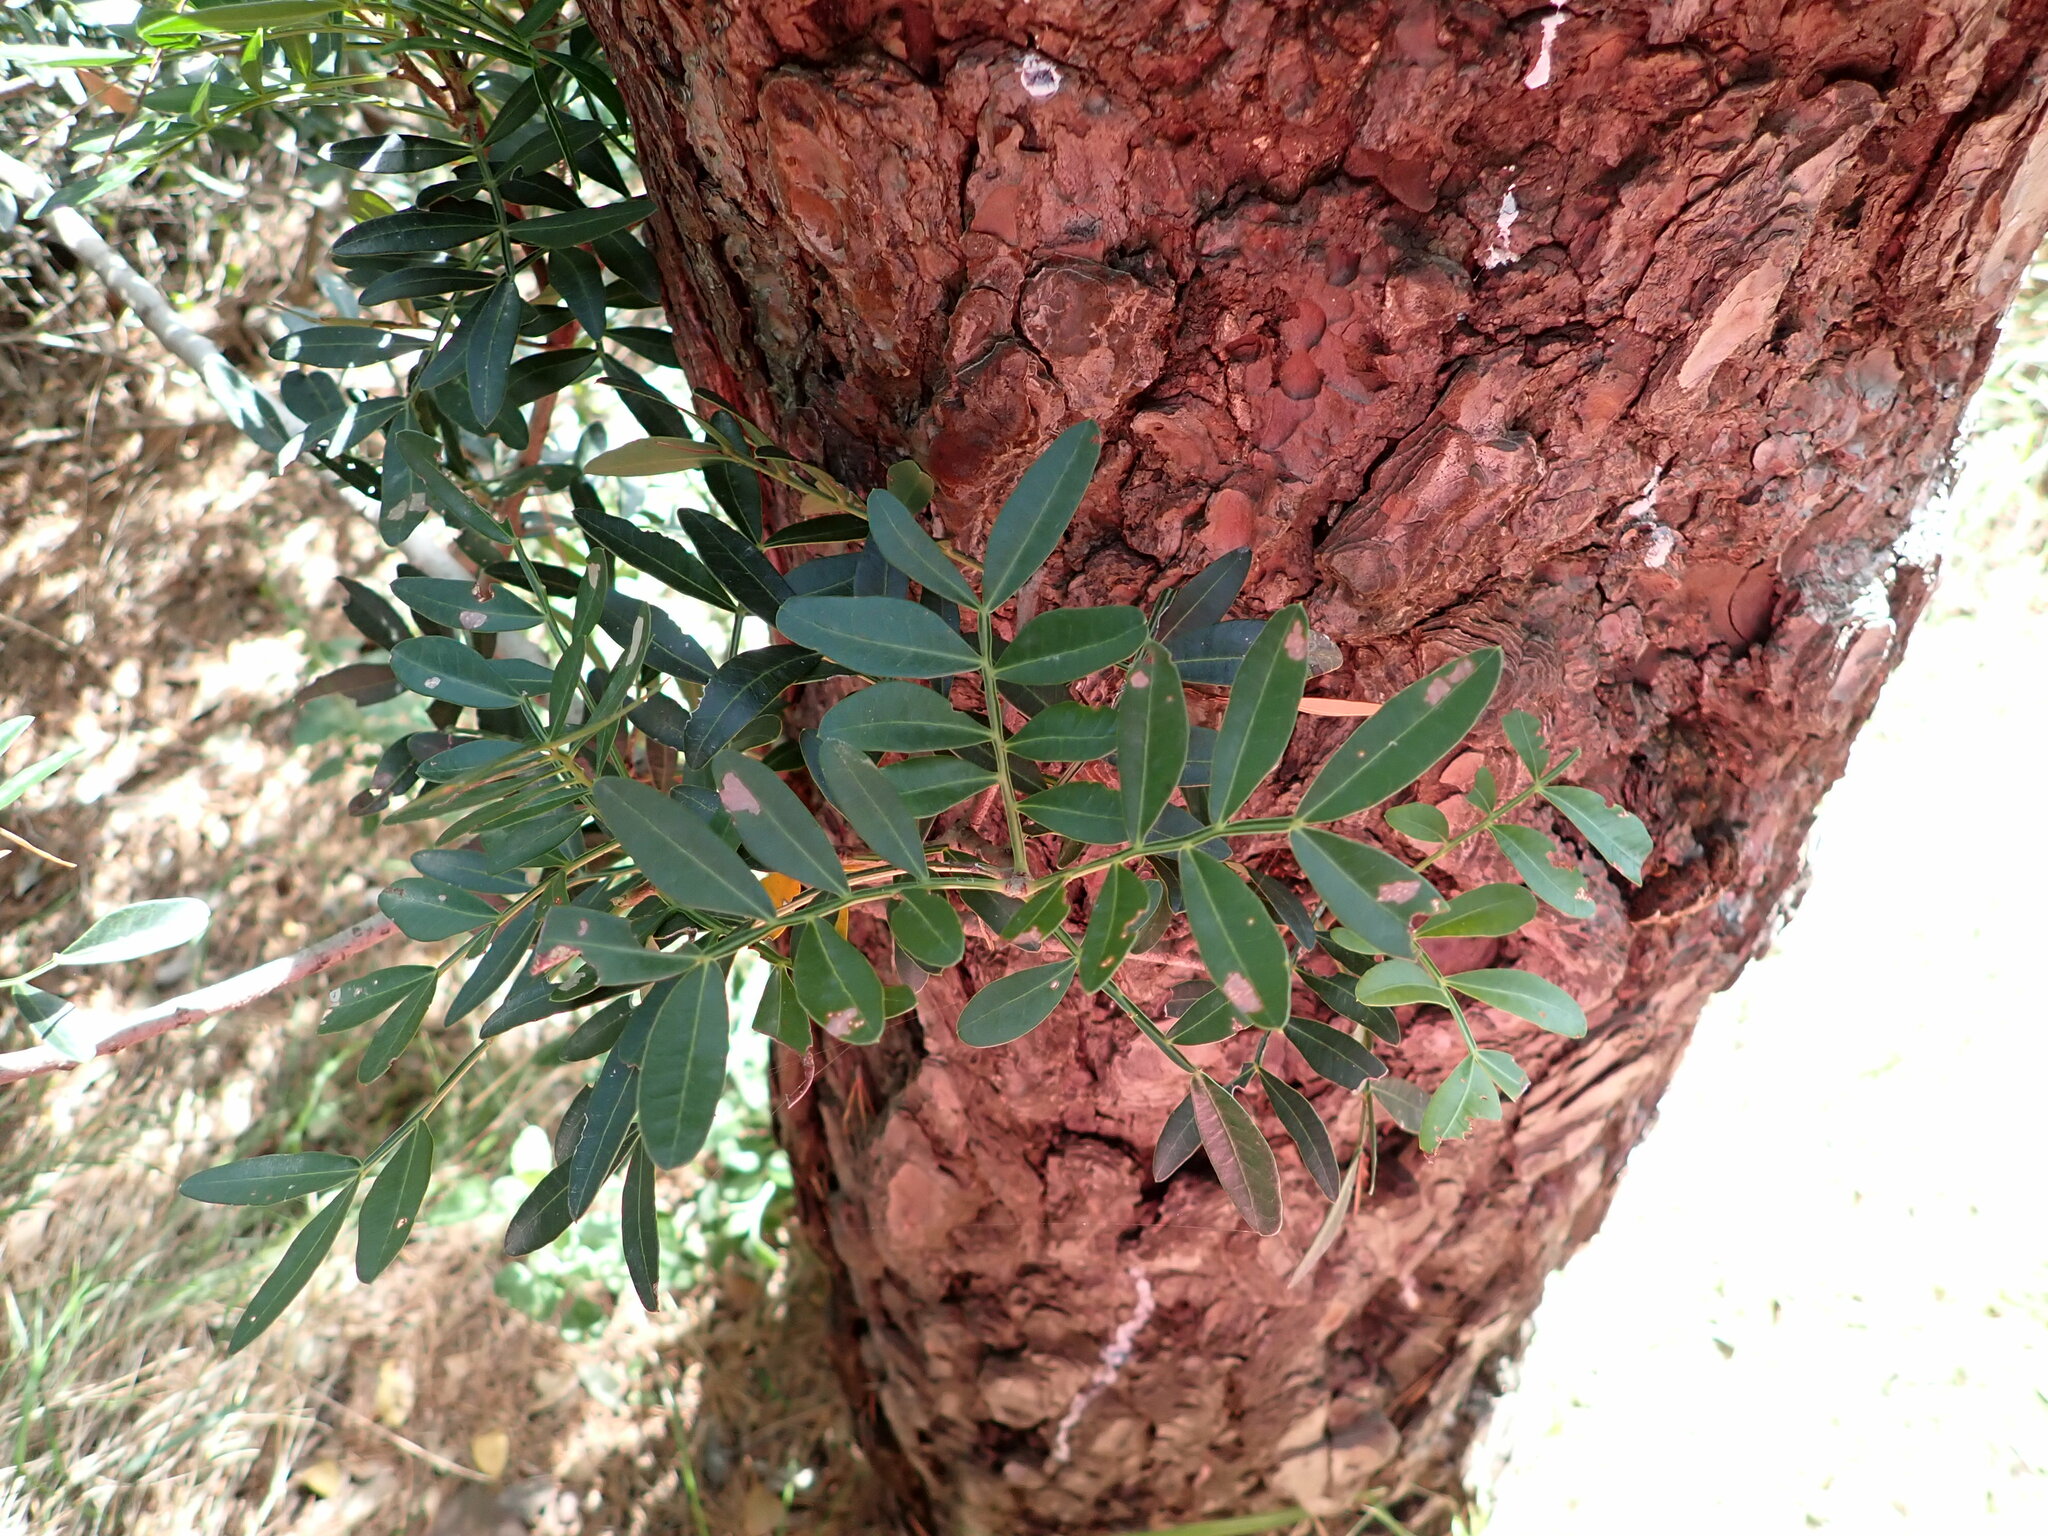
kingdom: Plantae
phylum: Tracheophyta
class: Magnoliopsida
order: Sapindales
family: Anacardiaceae
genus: Pistacia
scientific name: Pistacia lentiscus
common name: Lentisk
